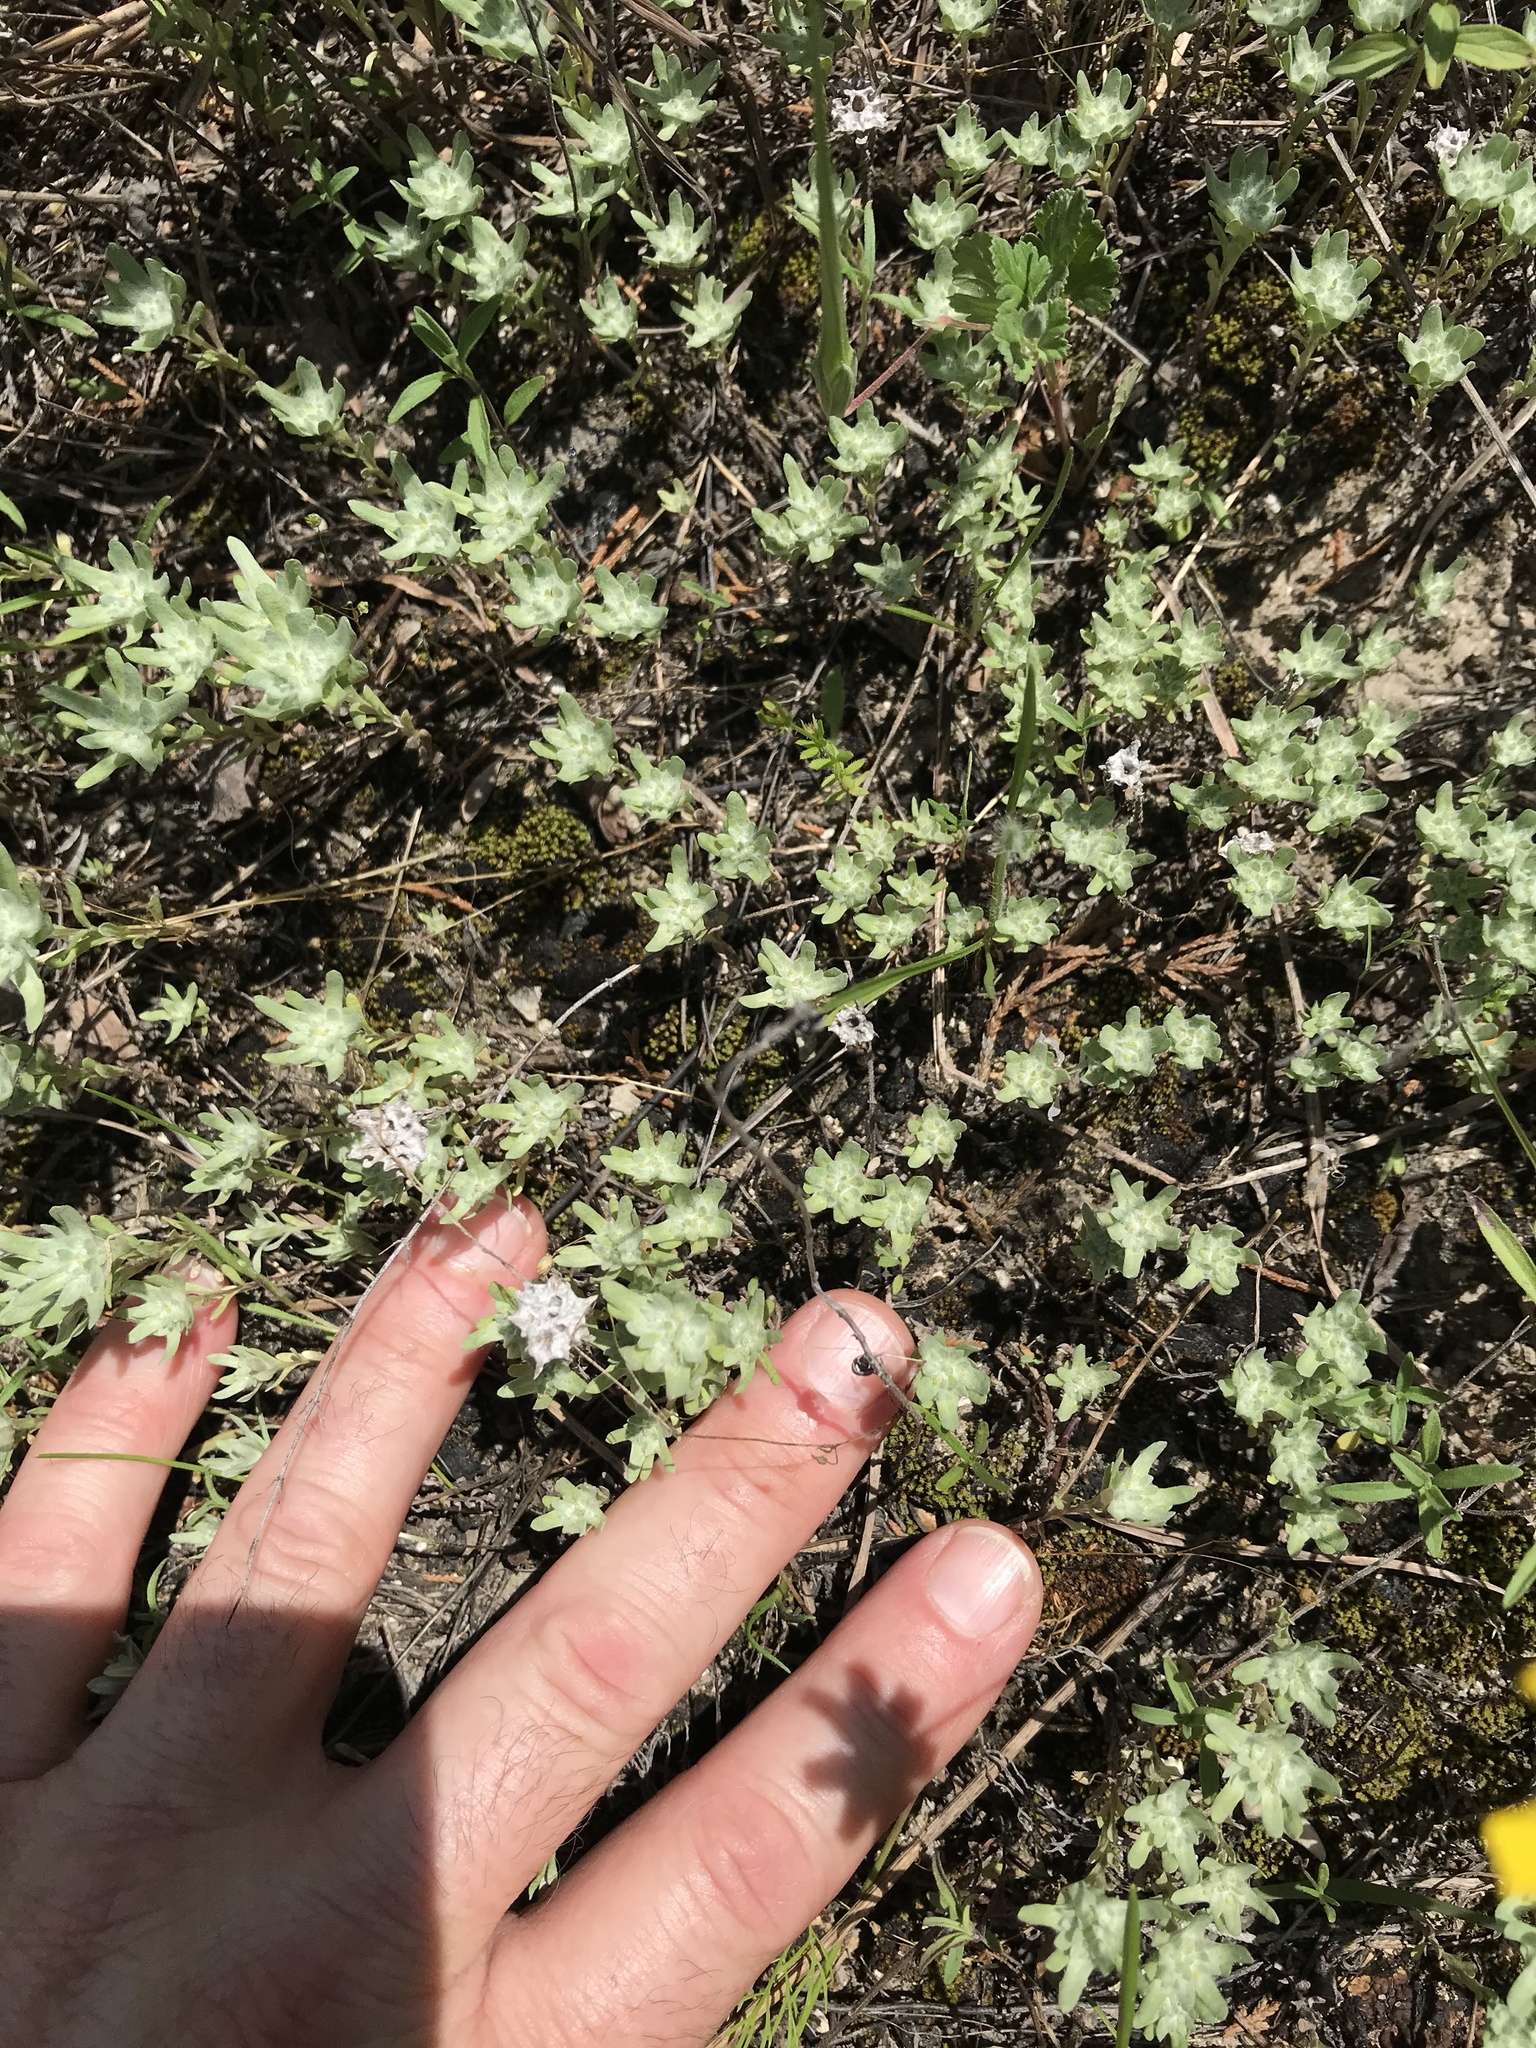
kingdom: Plantae
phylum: Tracheophyta
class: Magnoliopsida
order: Asterales
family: Asteraceae
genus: Diaperia
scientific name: Diaperia prolifera
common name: Big-head rabbit-tobacco
